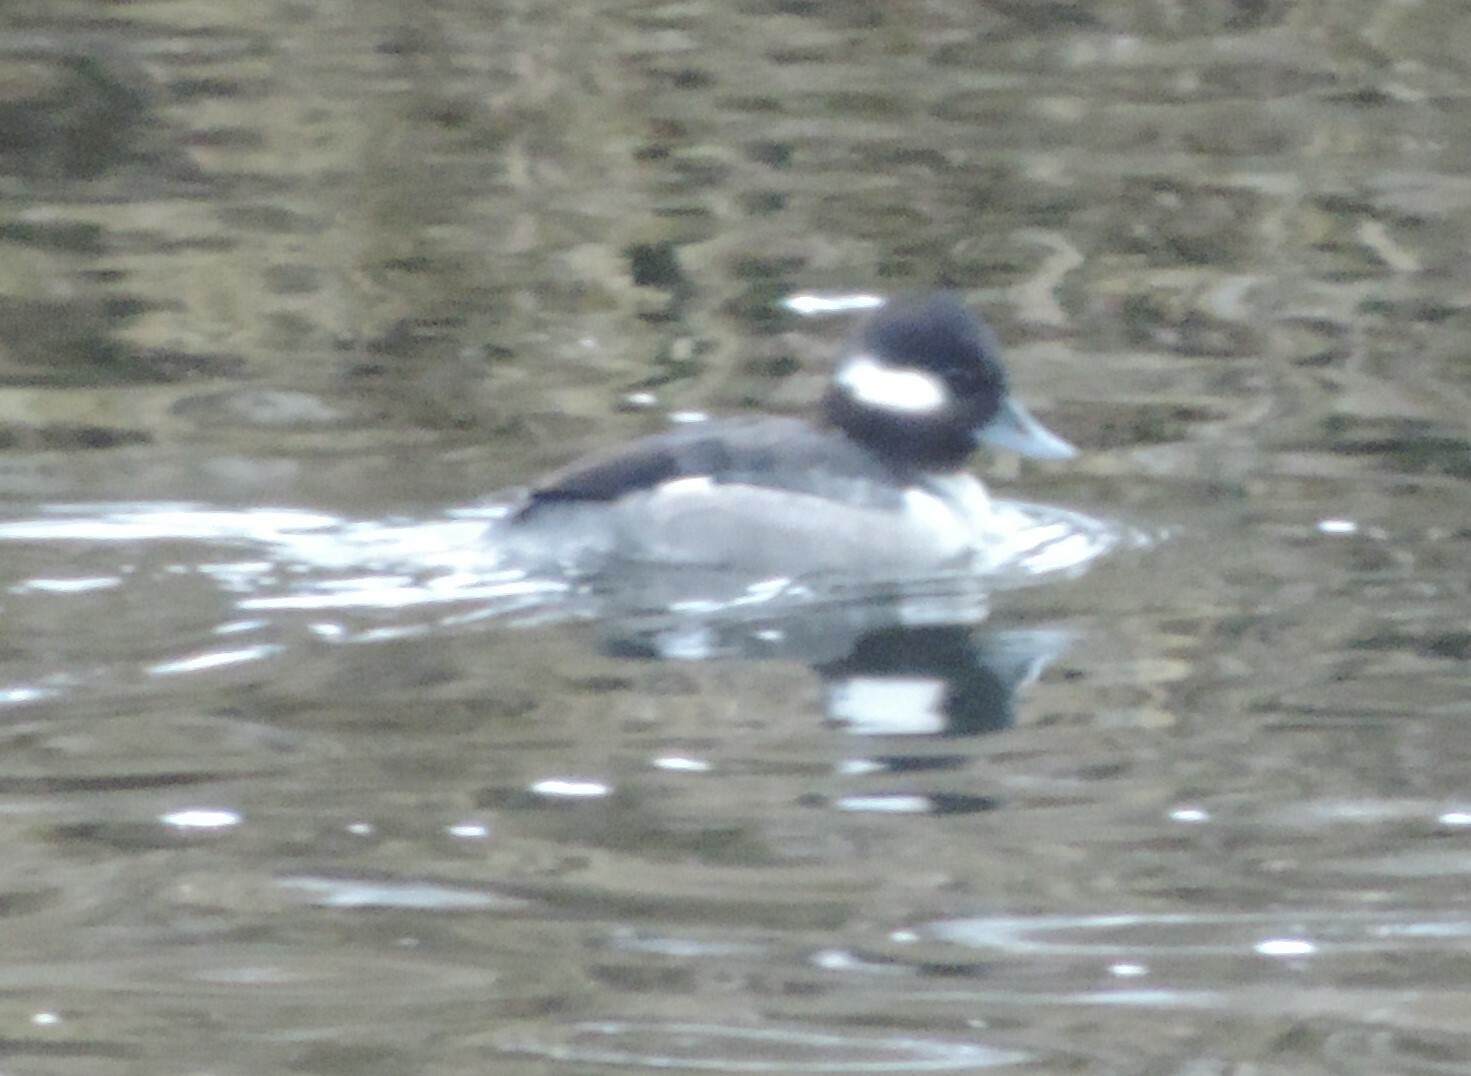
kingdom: Animalia
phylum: Chordata
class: Aves
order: Anseriformes
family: Anatidae
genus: Bucephala
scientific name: Bucephala albeola
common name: Bufflehead
